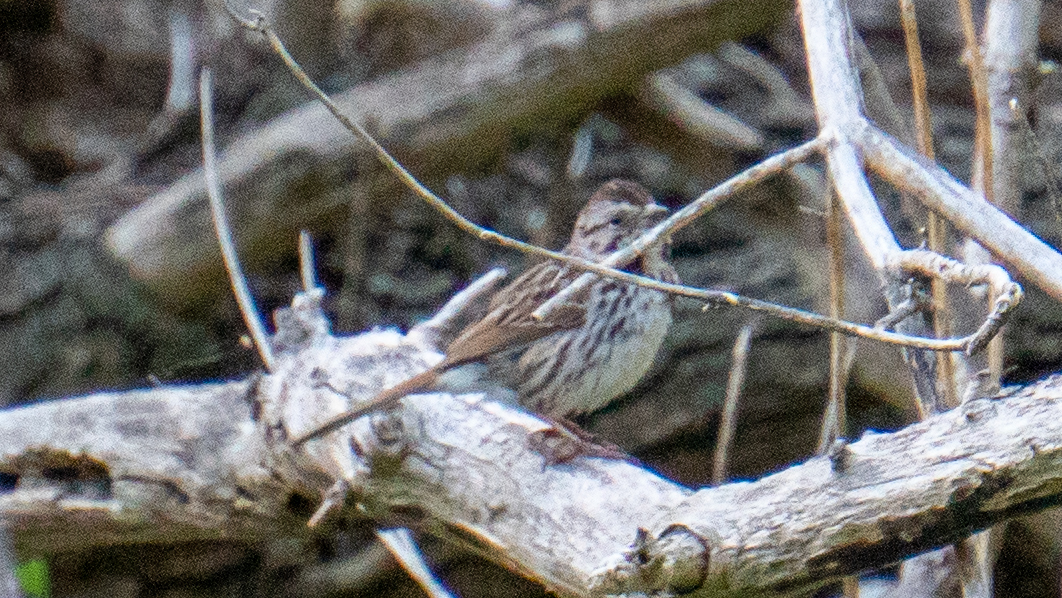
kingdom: Animalia
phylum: Chordata
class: Aves
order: Passeriformes
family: Passerellidae
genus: Melospiza
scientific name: Melospiza melodia
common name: Song sparrow
